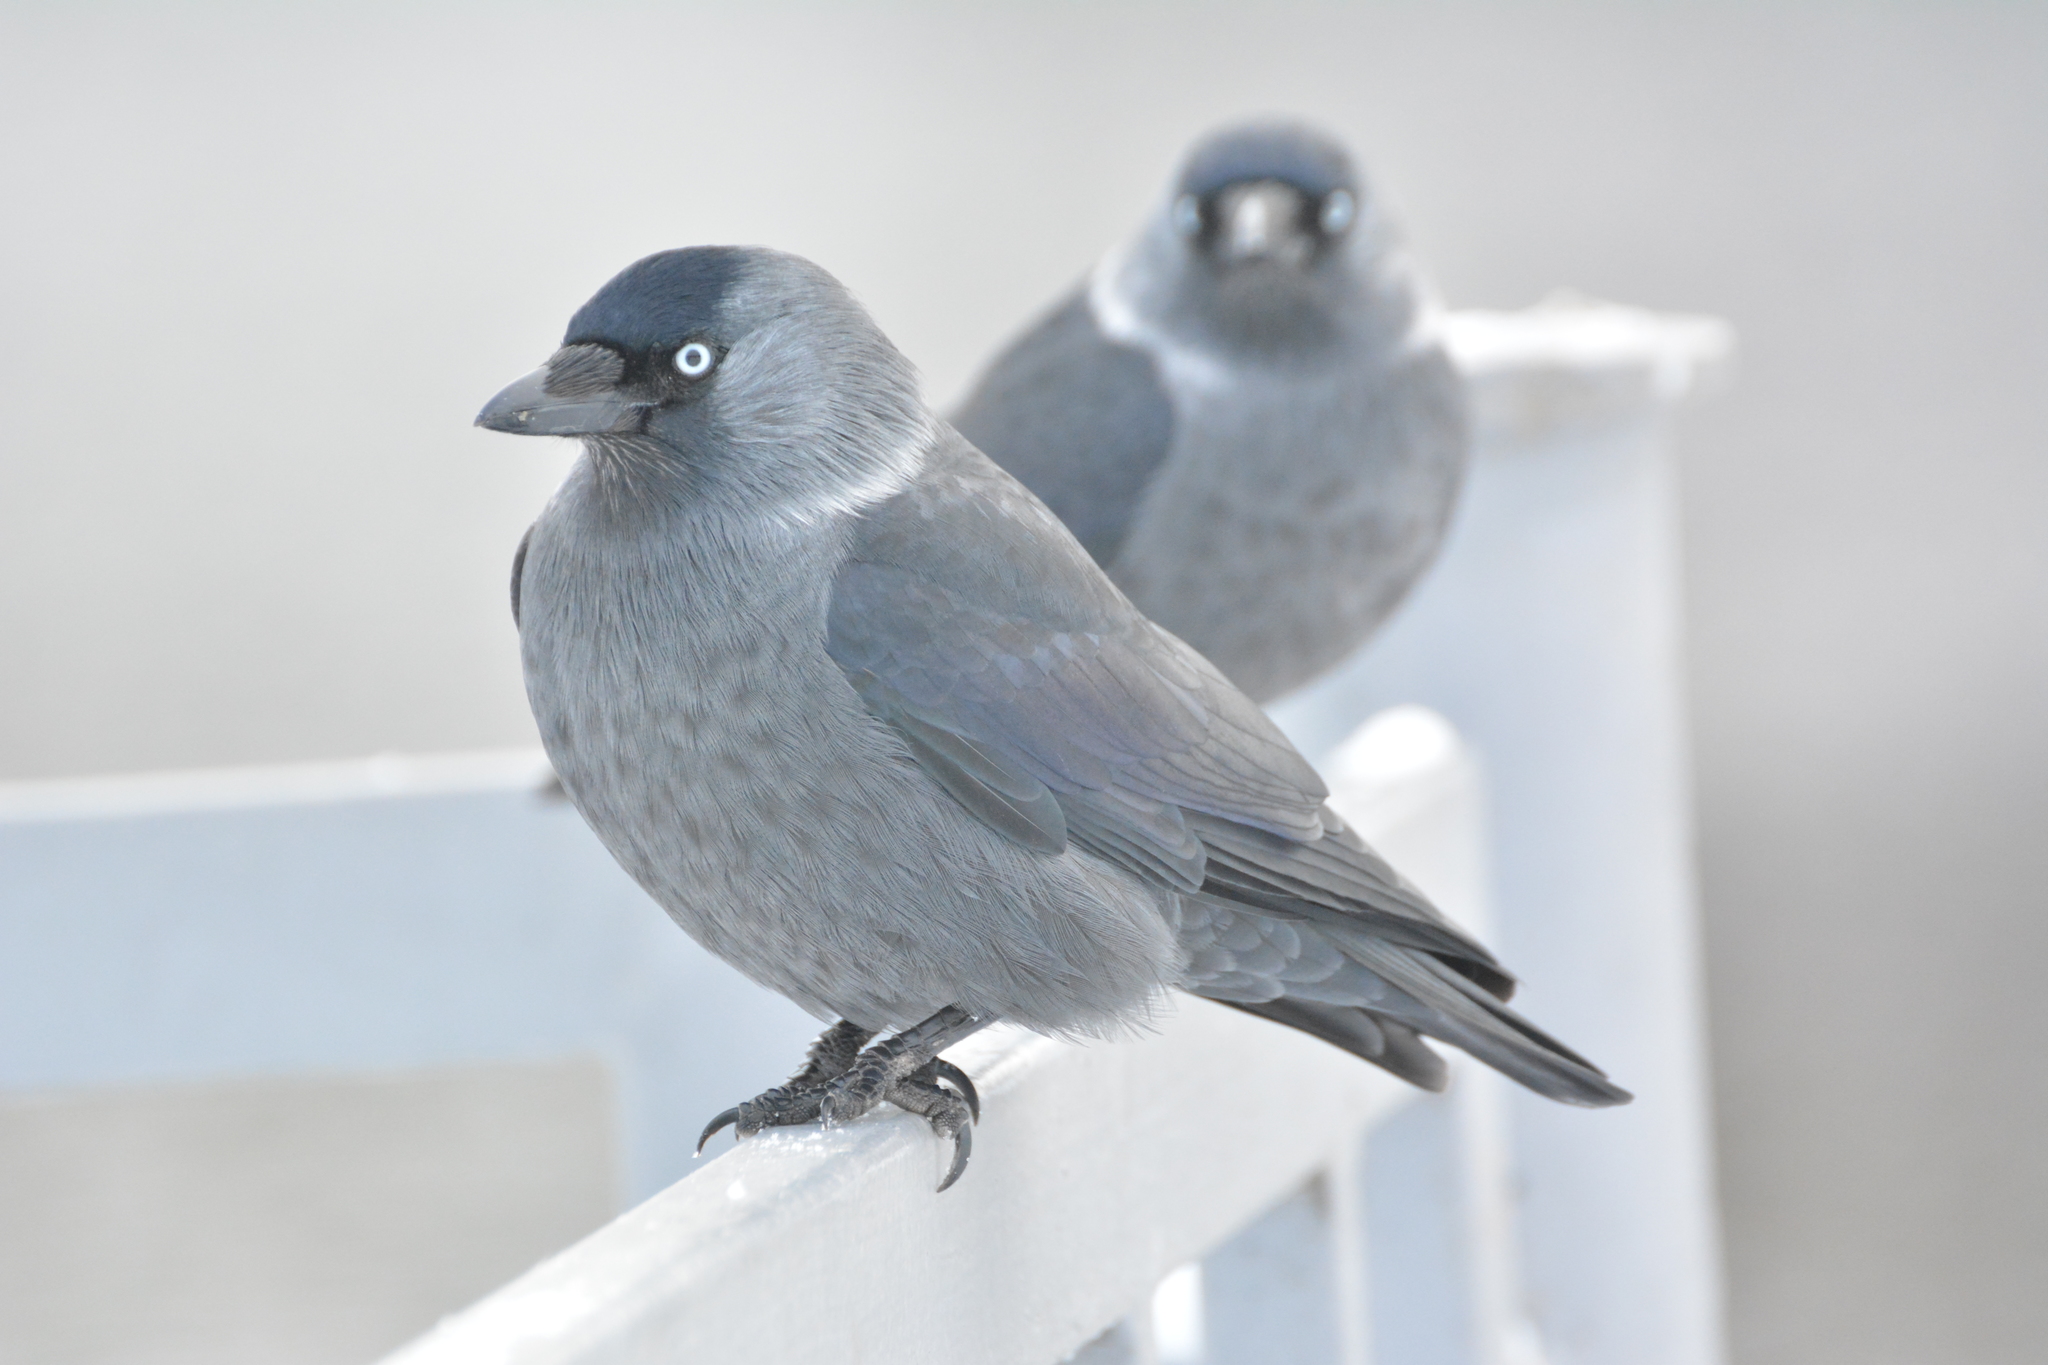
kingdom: Animalia
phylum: Chordata
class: Aves
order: Passeriformes
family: Corvidae
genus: Coloeus
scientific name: Coloeus monedula
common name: Western jackdaw
